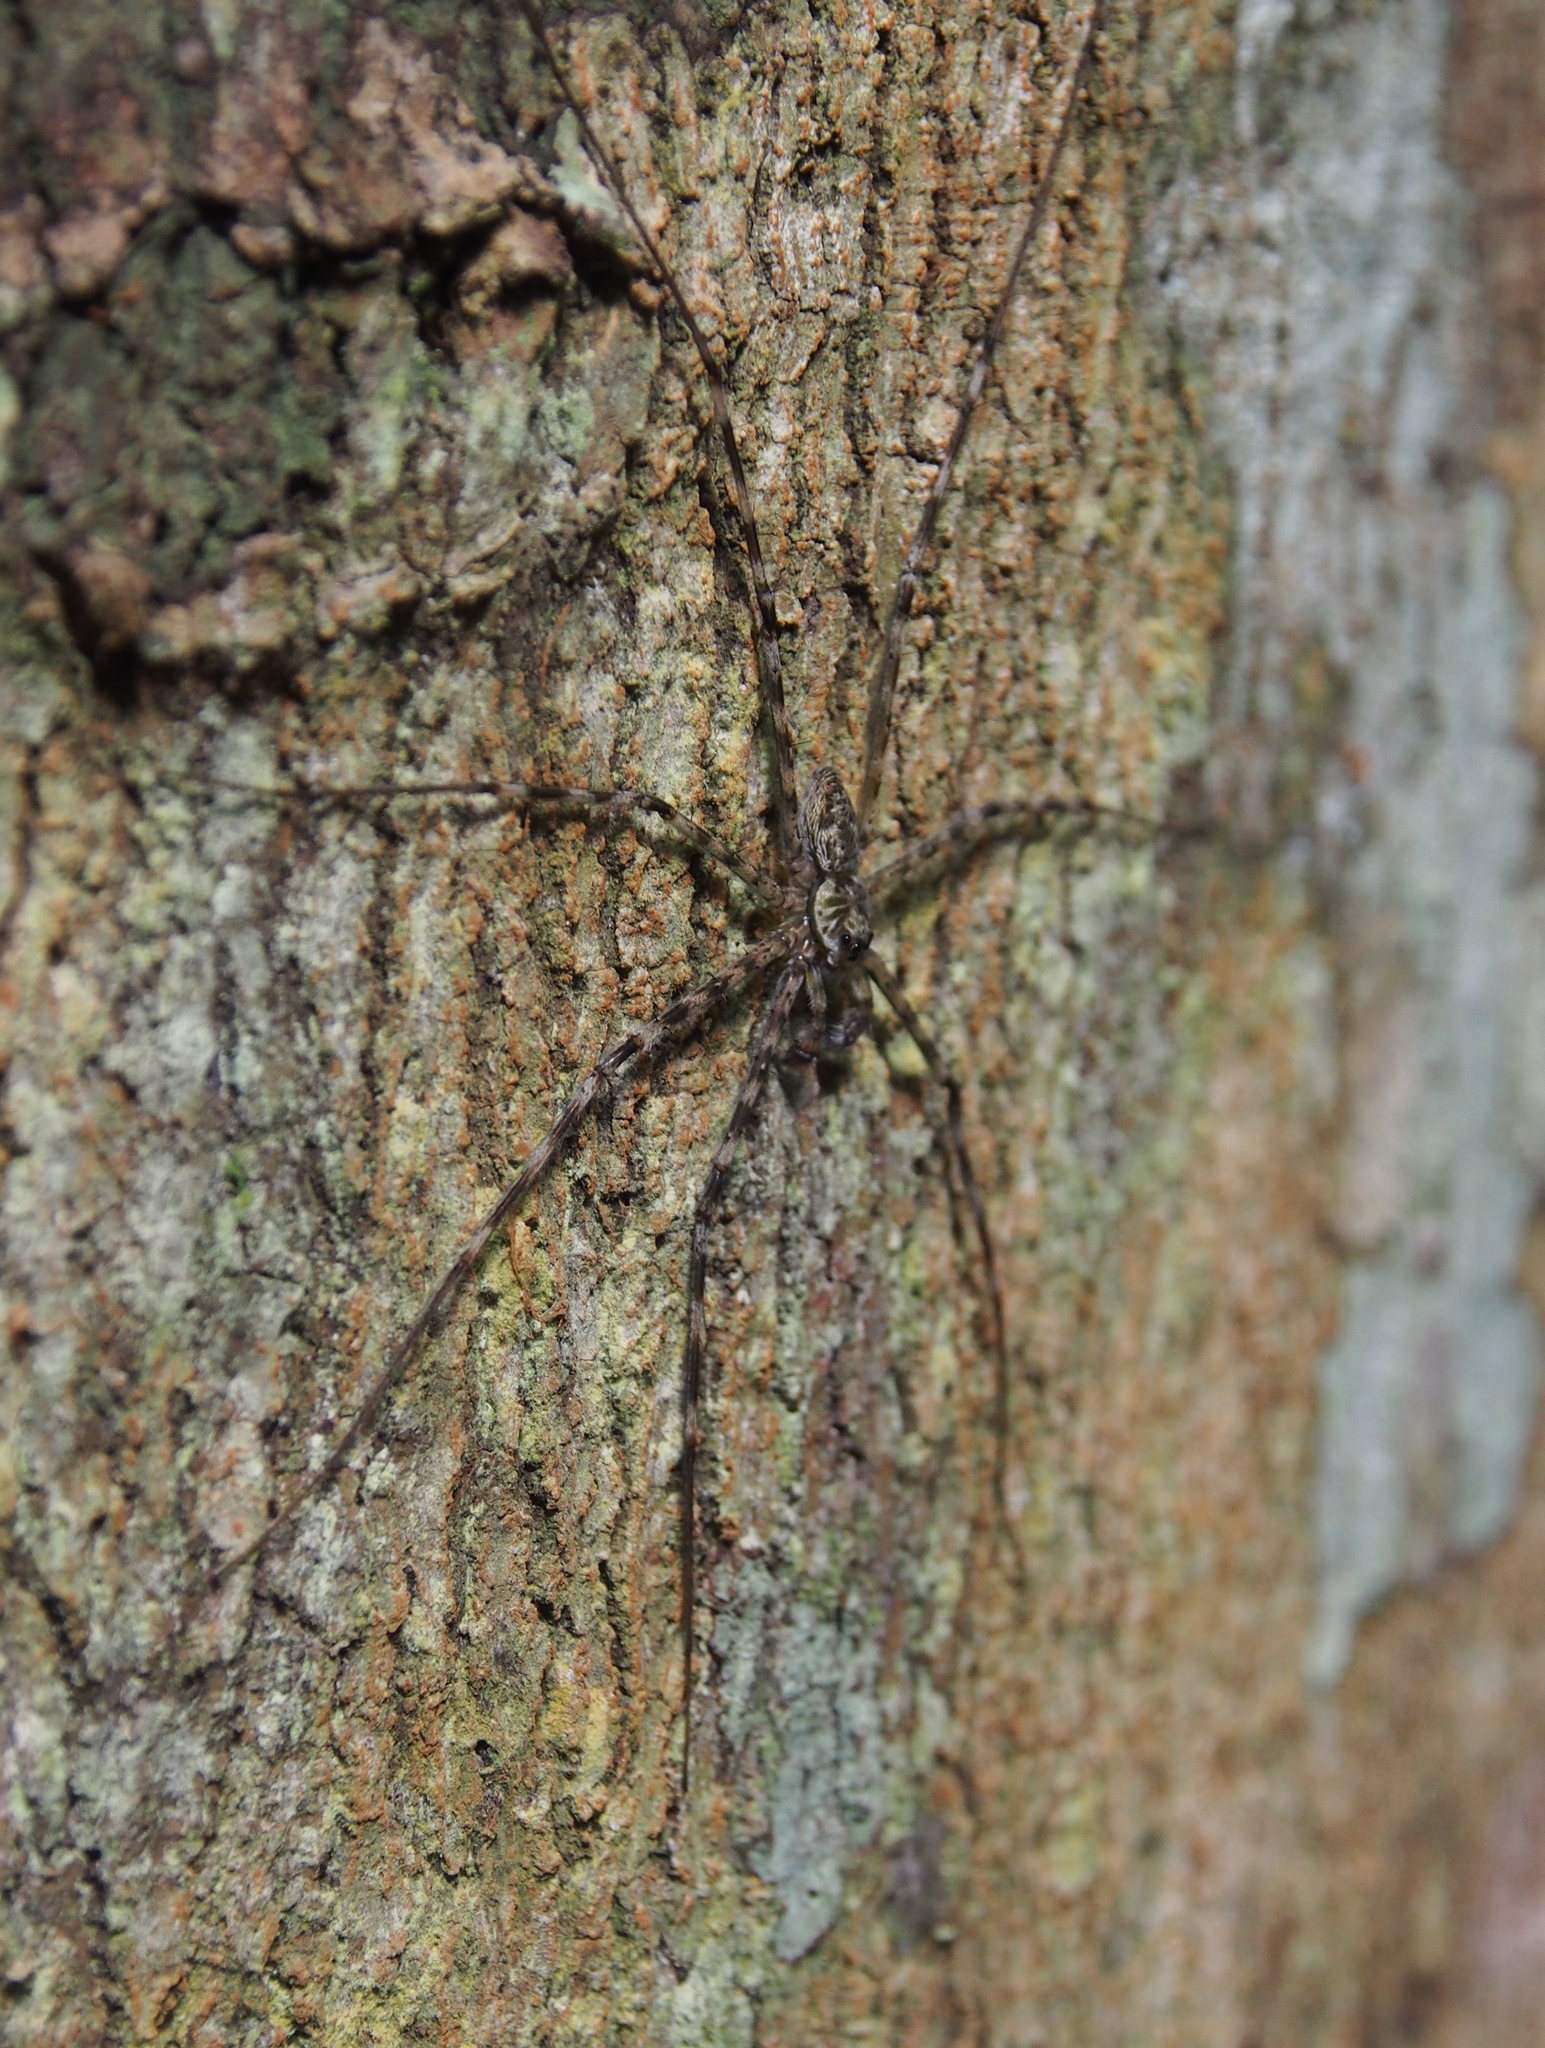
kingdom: Animalia
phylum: Arthropoda
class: Arachnida
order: Araneae
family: Trechaleidae
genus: Syntrechalea
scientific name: Syntrechalea tenuis
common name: Long legged water spiders
